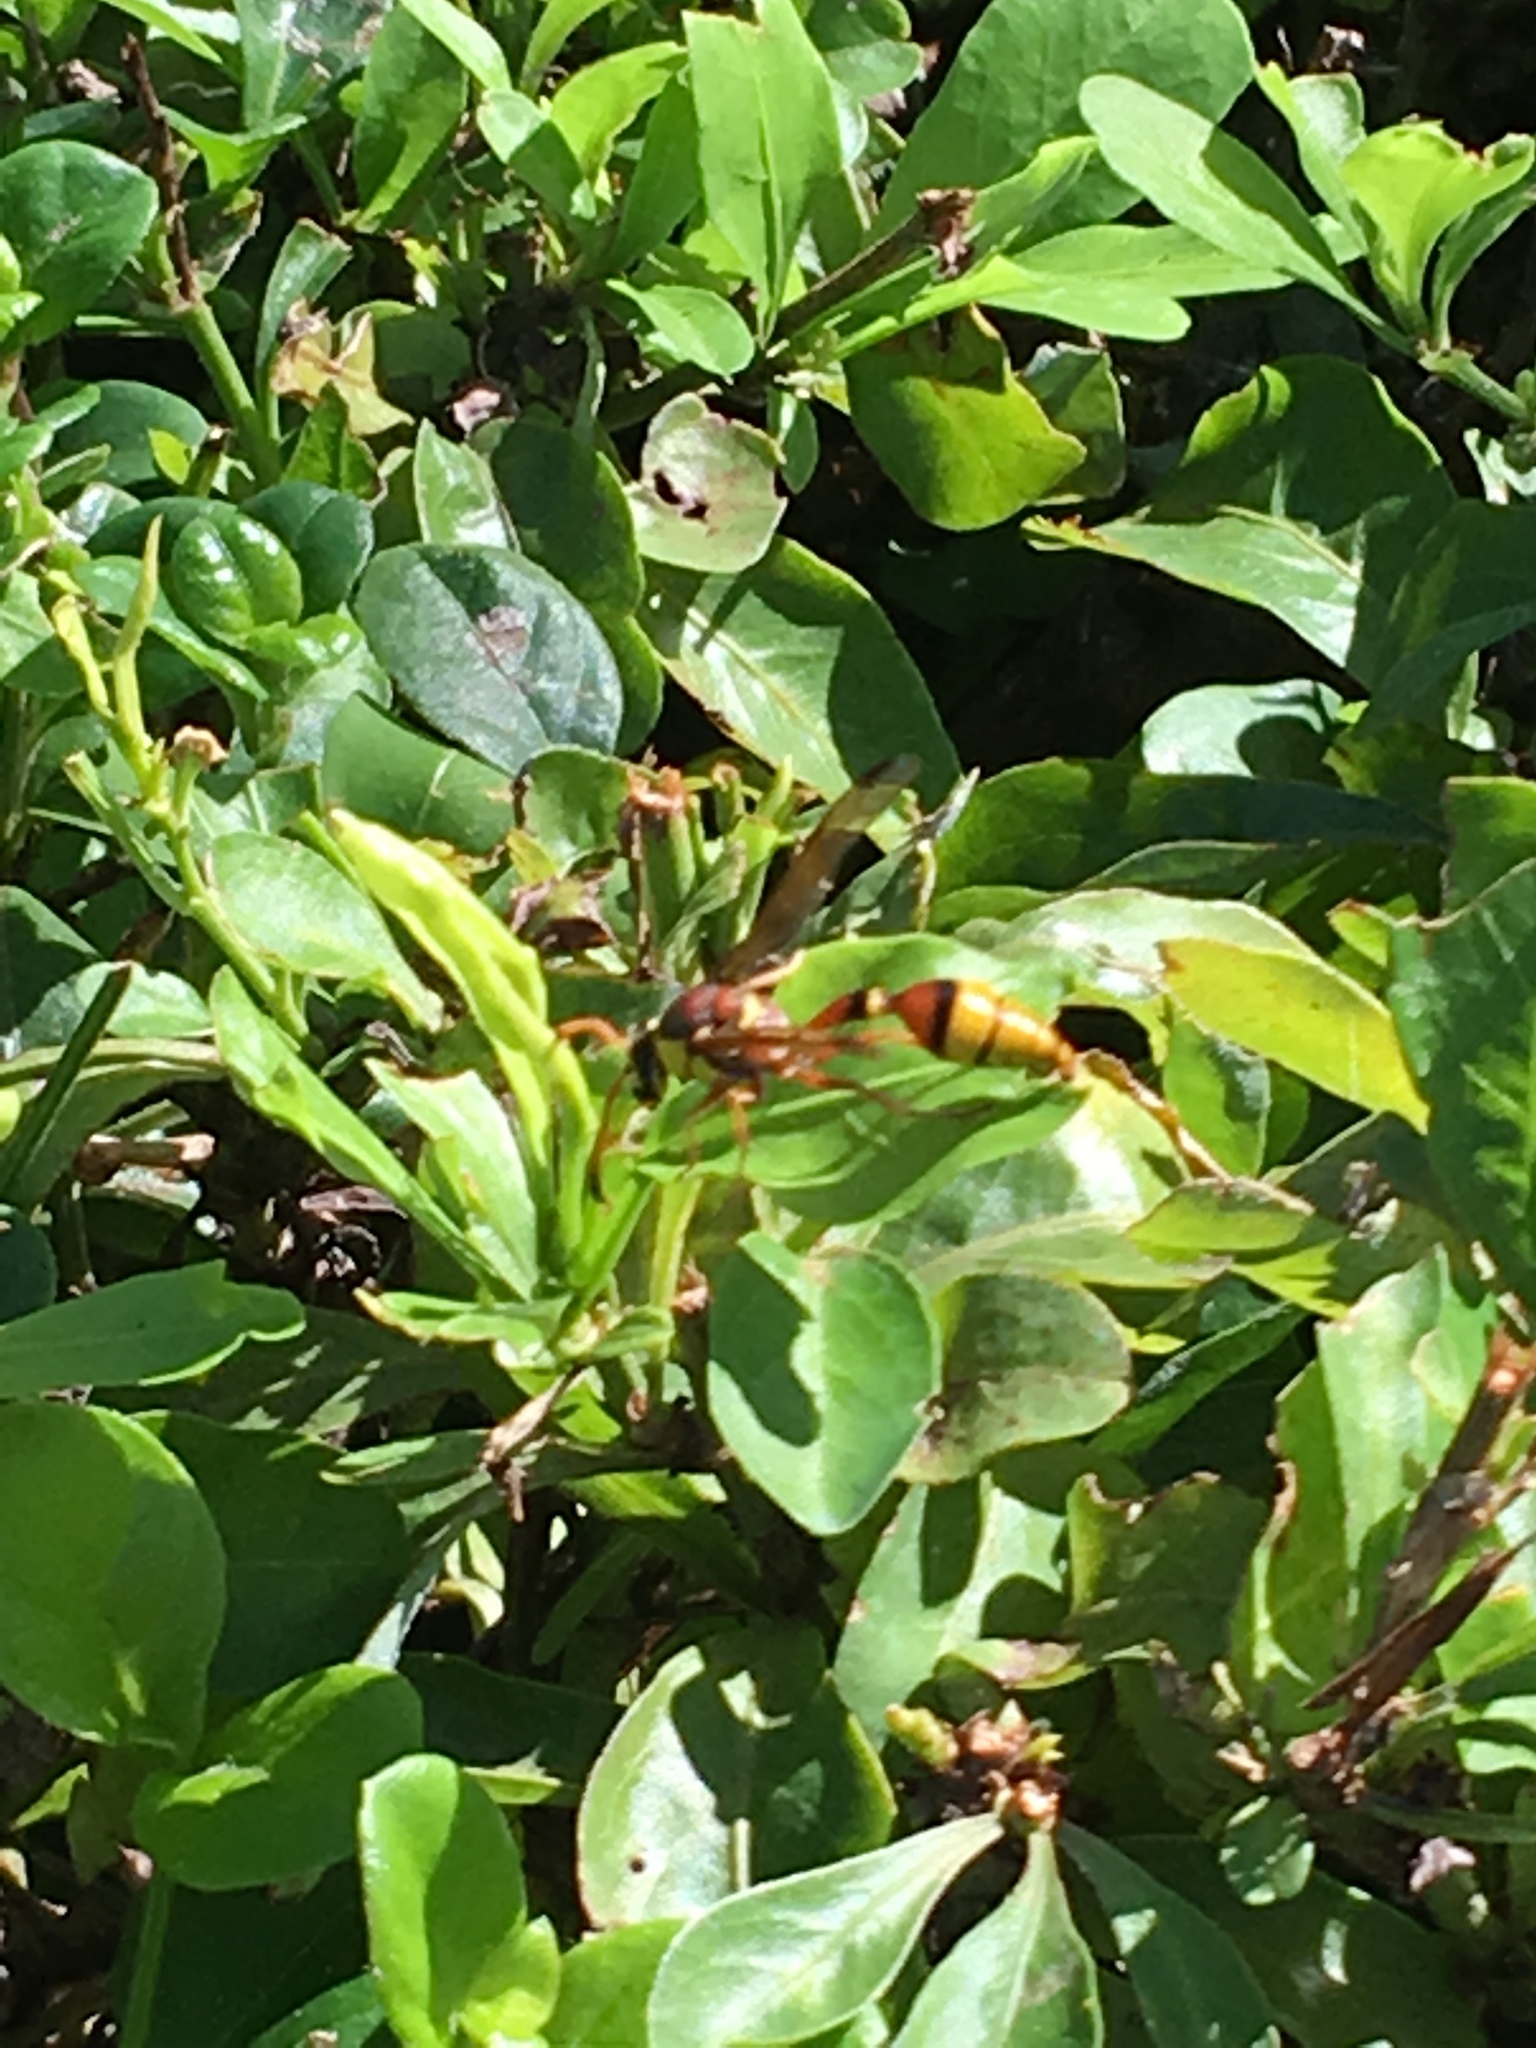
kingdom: Animalia
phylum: Arthropoda
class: Insecta
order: Hymenoptera
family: Eumenidae
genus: Delta
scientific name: Delta esuriens
